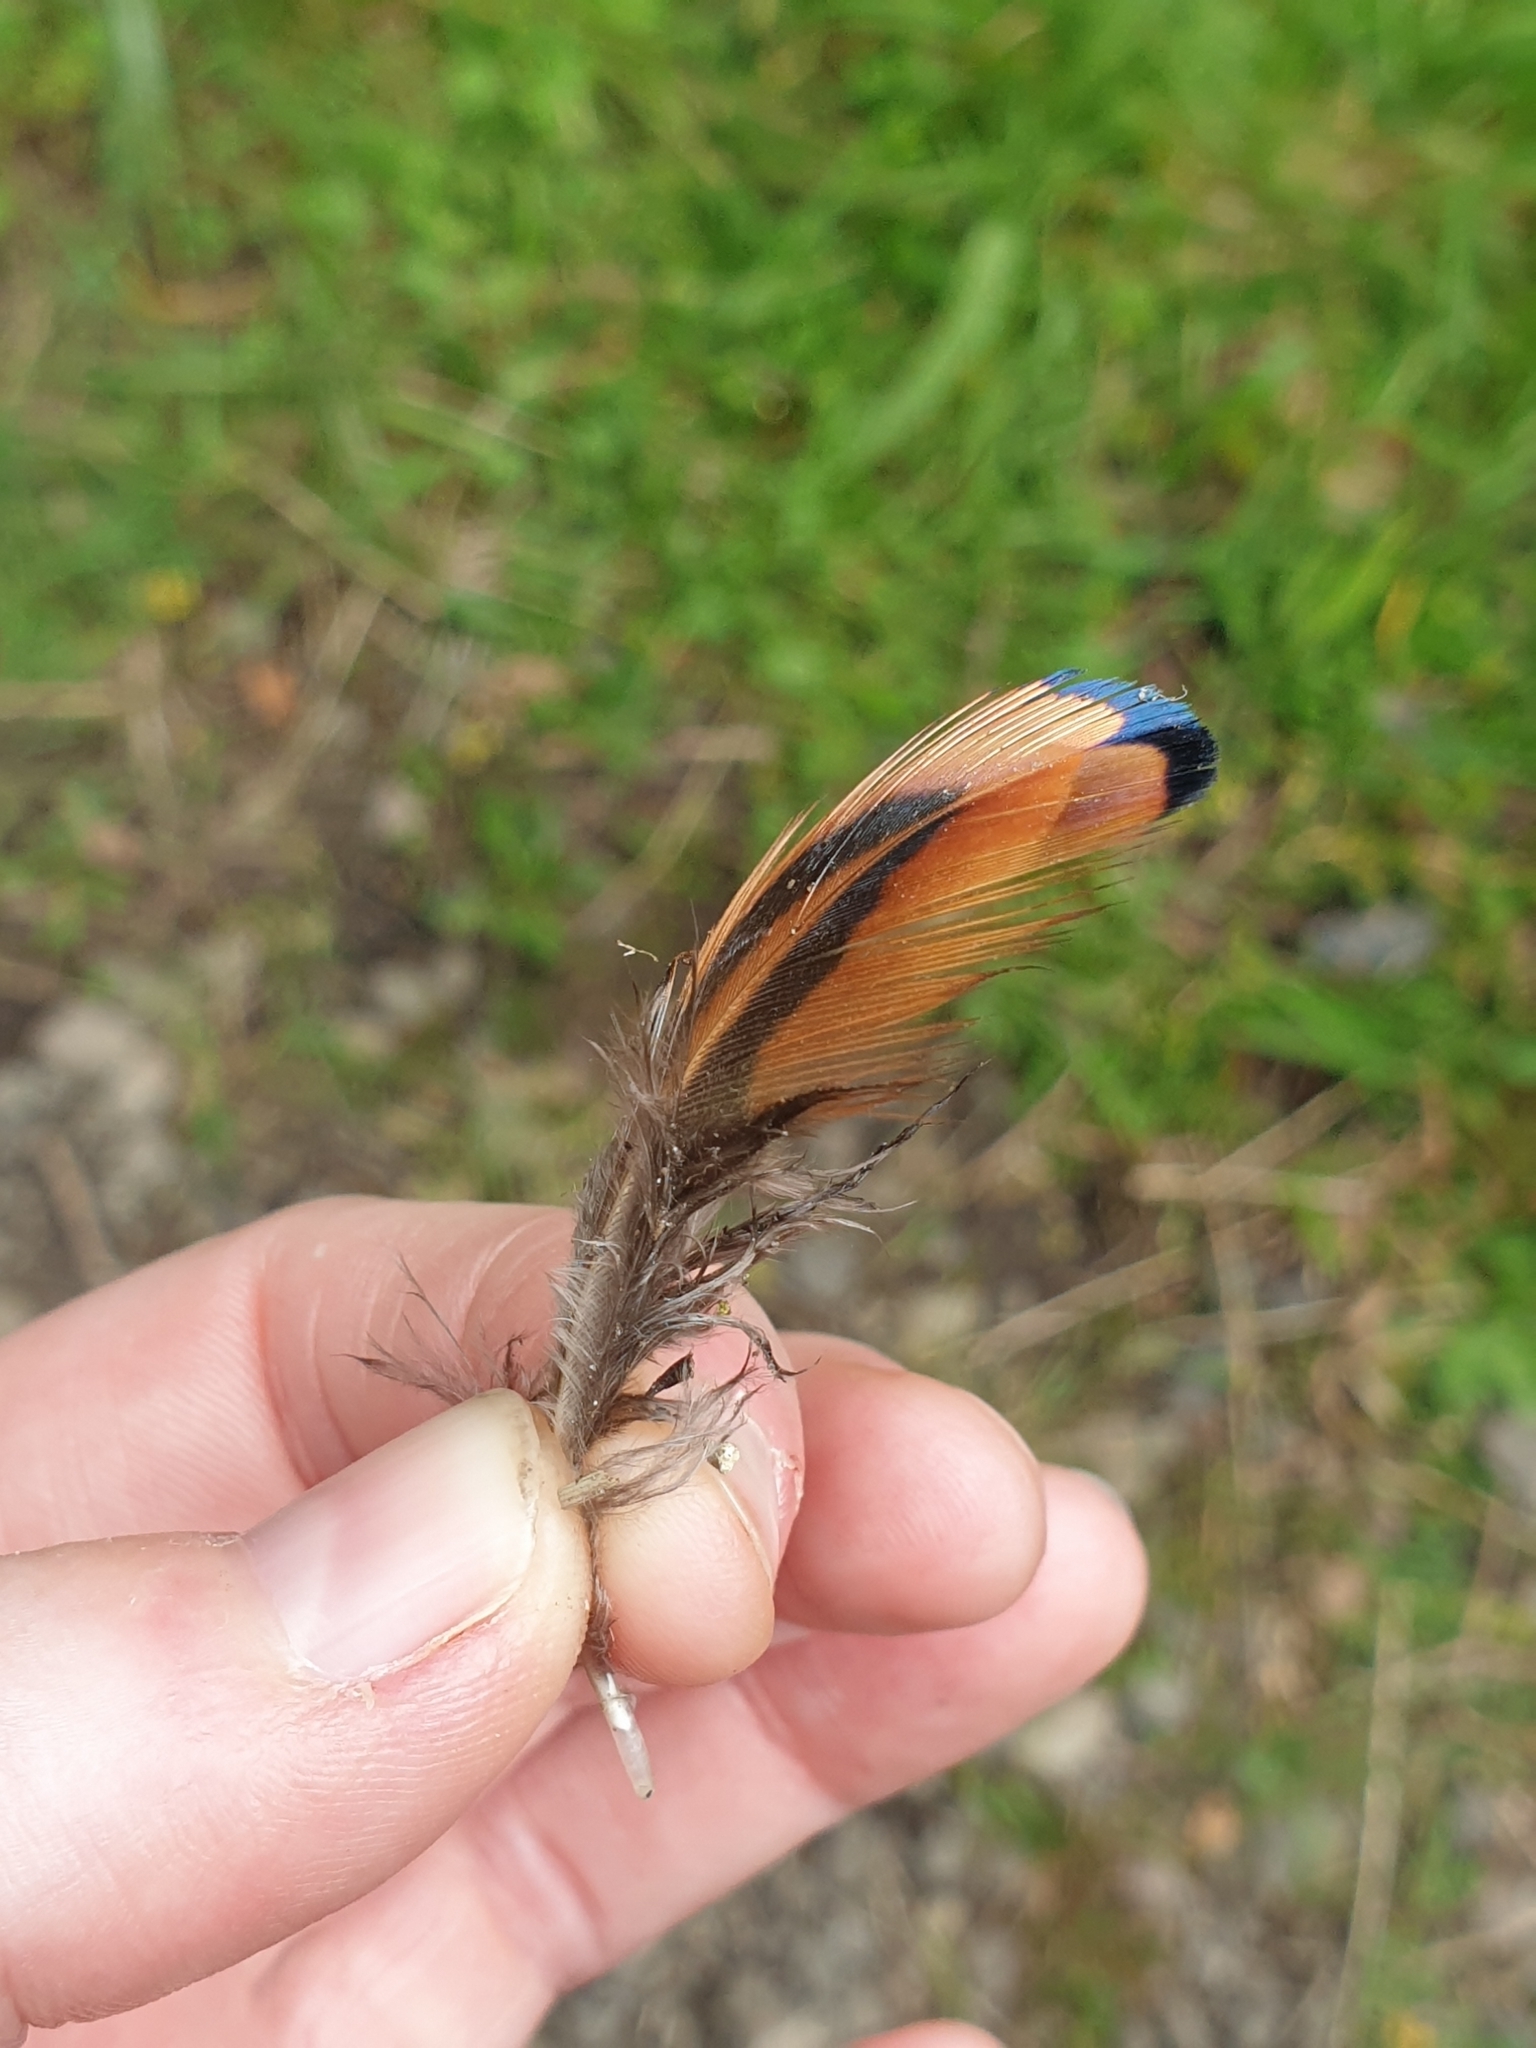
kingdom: Animalia
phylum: Chordata
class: Aves
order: Galliformes
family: Phasianidae
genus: Phasianus
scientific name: Phasianus colchicus
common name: Common pheasant
